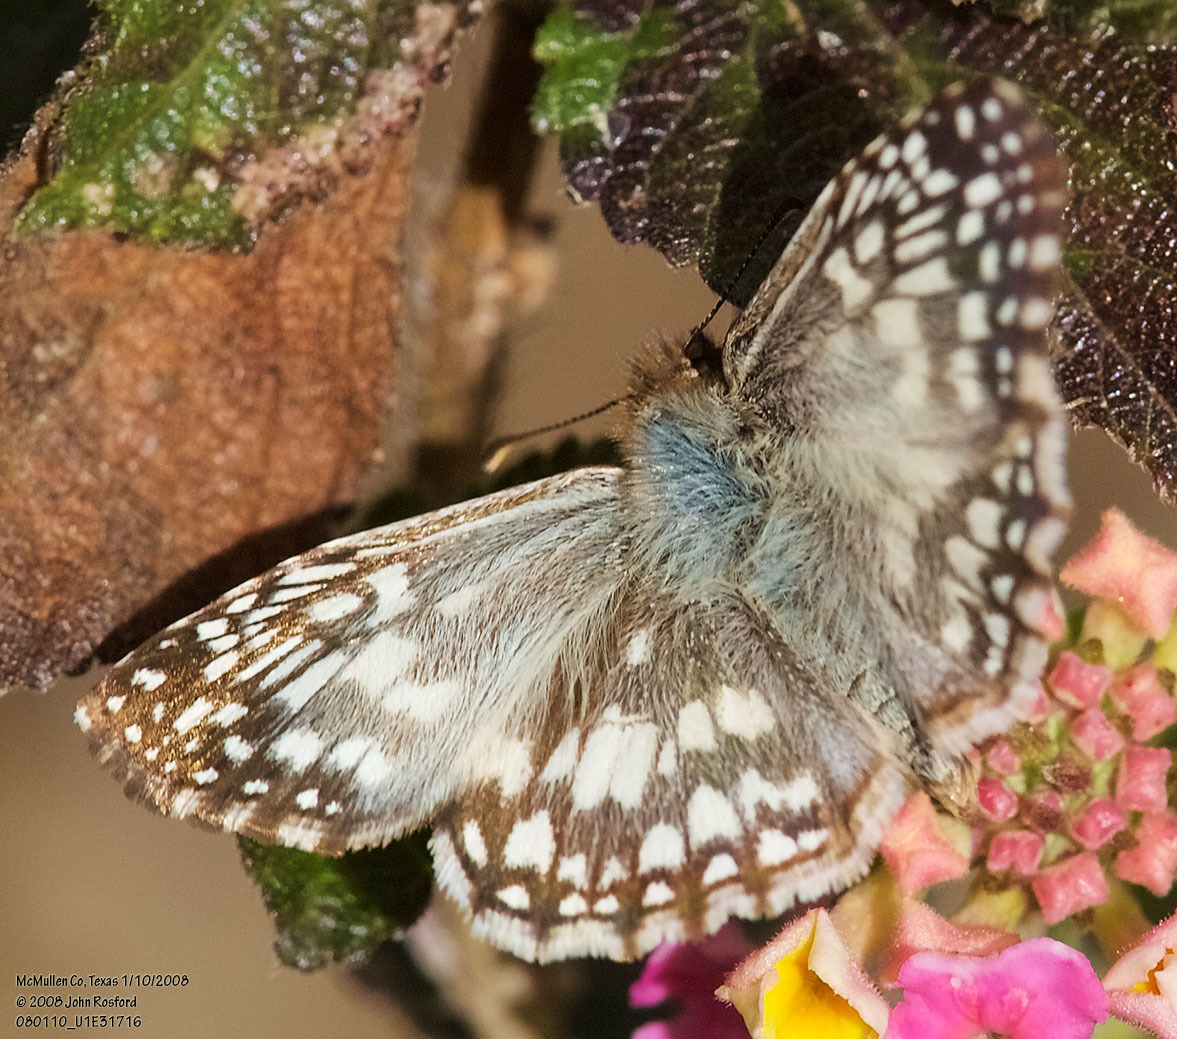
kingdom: Animalia
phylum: Arthropoda
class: Insecta
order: Lepidoptera
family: Hesperiidae
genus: Pyrgus
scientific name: Pyrgus oileus
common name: Tropical checkered-skipper
